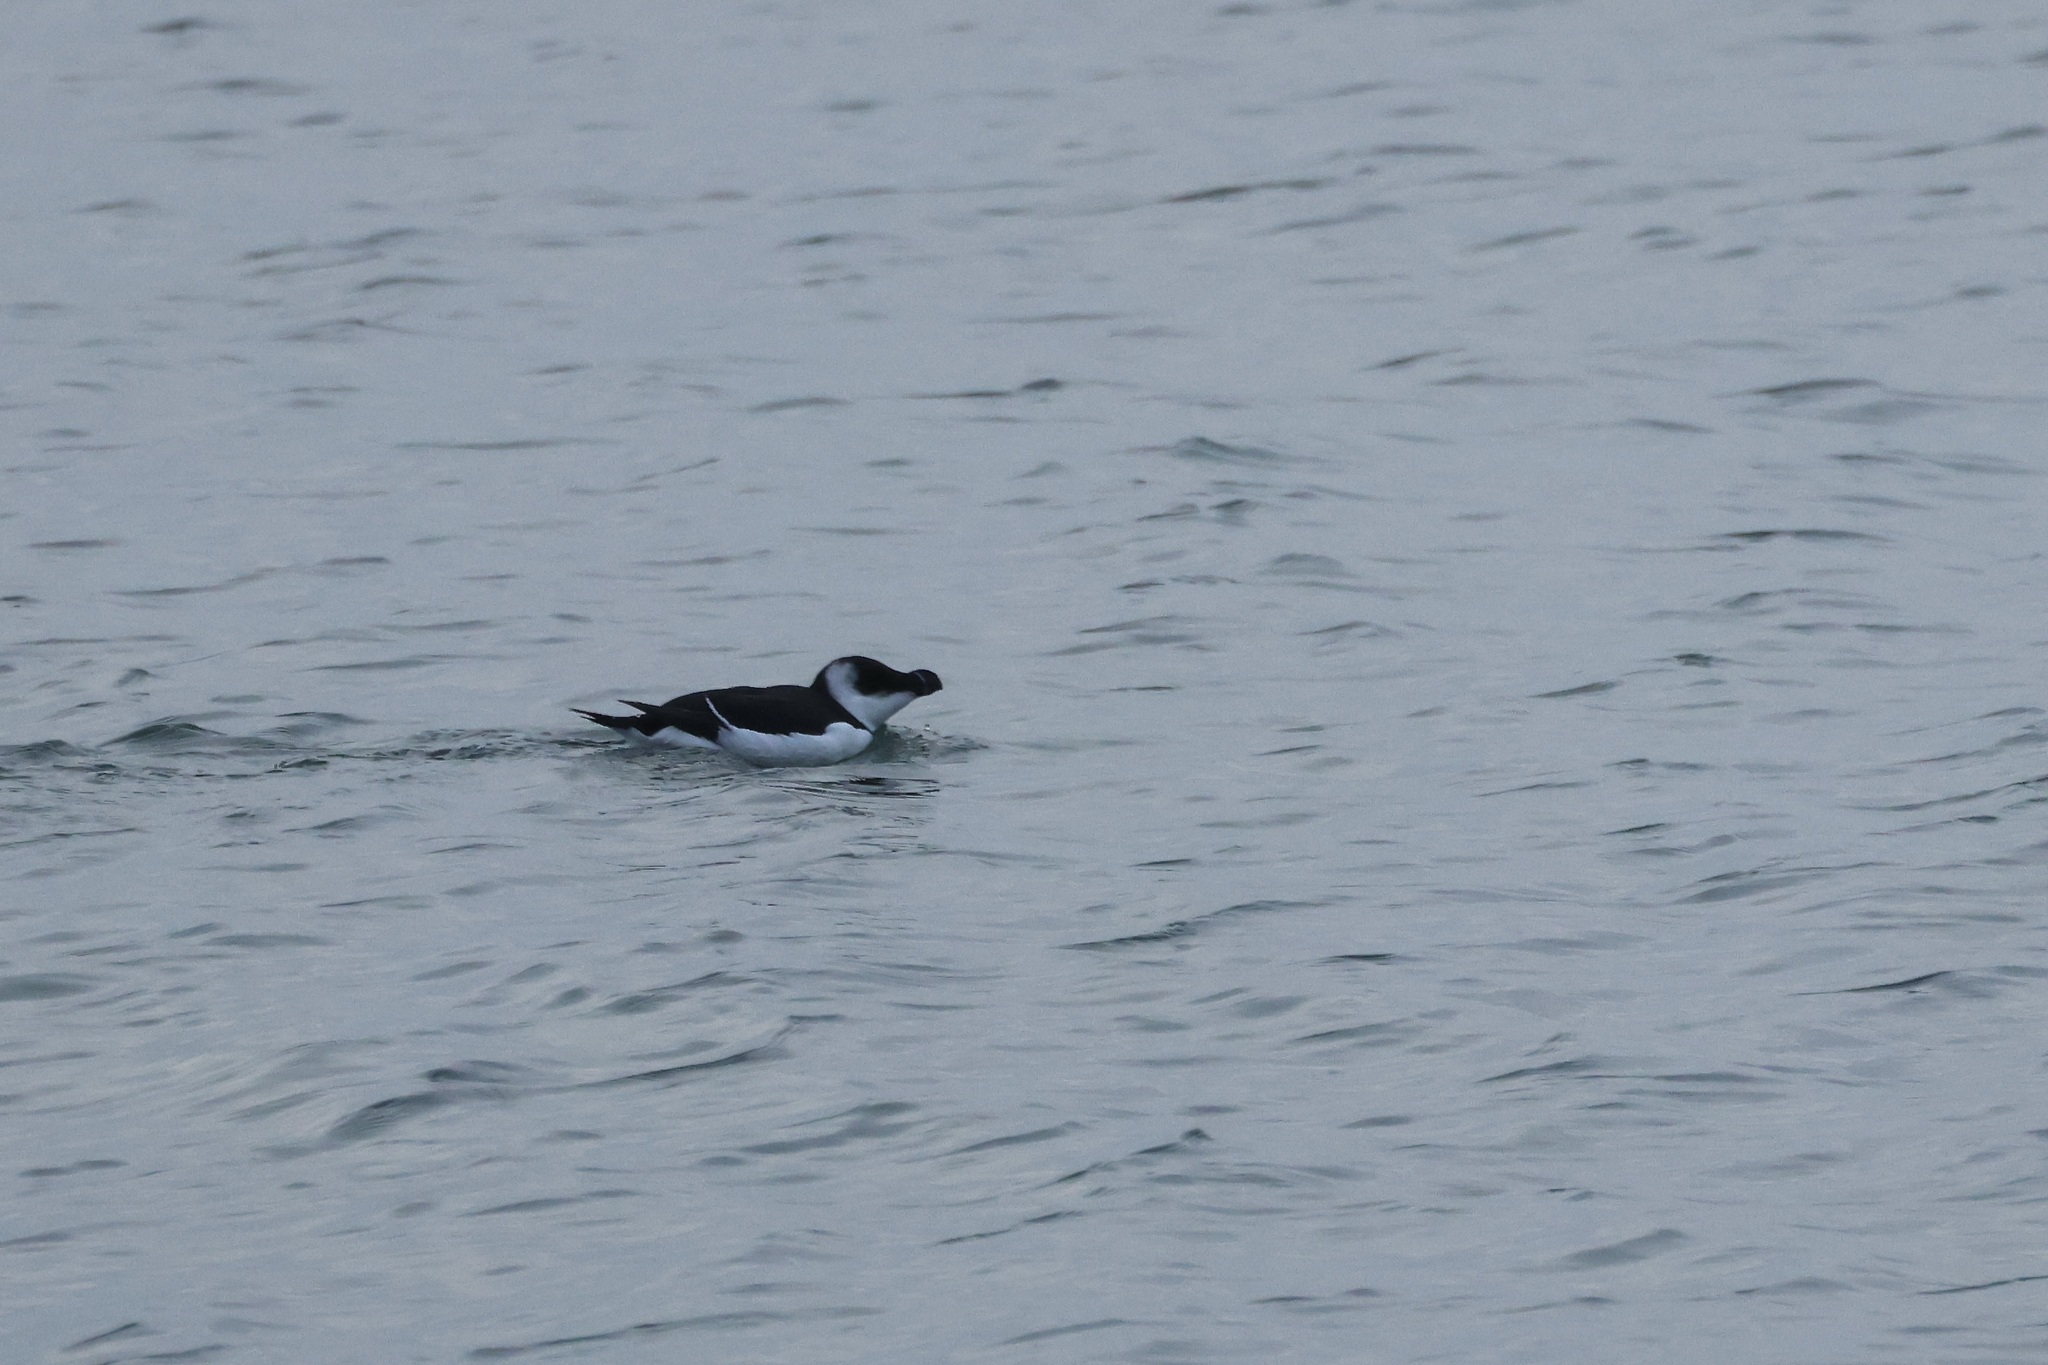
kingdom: Animalia
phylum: Chordata
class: Aves
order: Charadriiformes
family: Alcidae
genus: Alca
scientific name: Alca torda
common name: Razorbill
